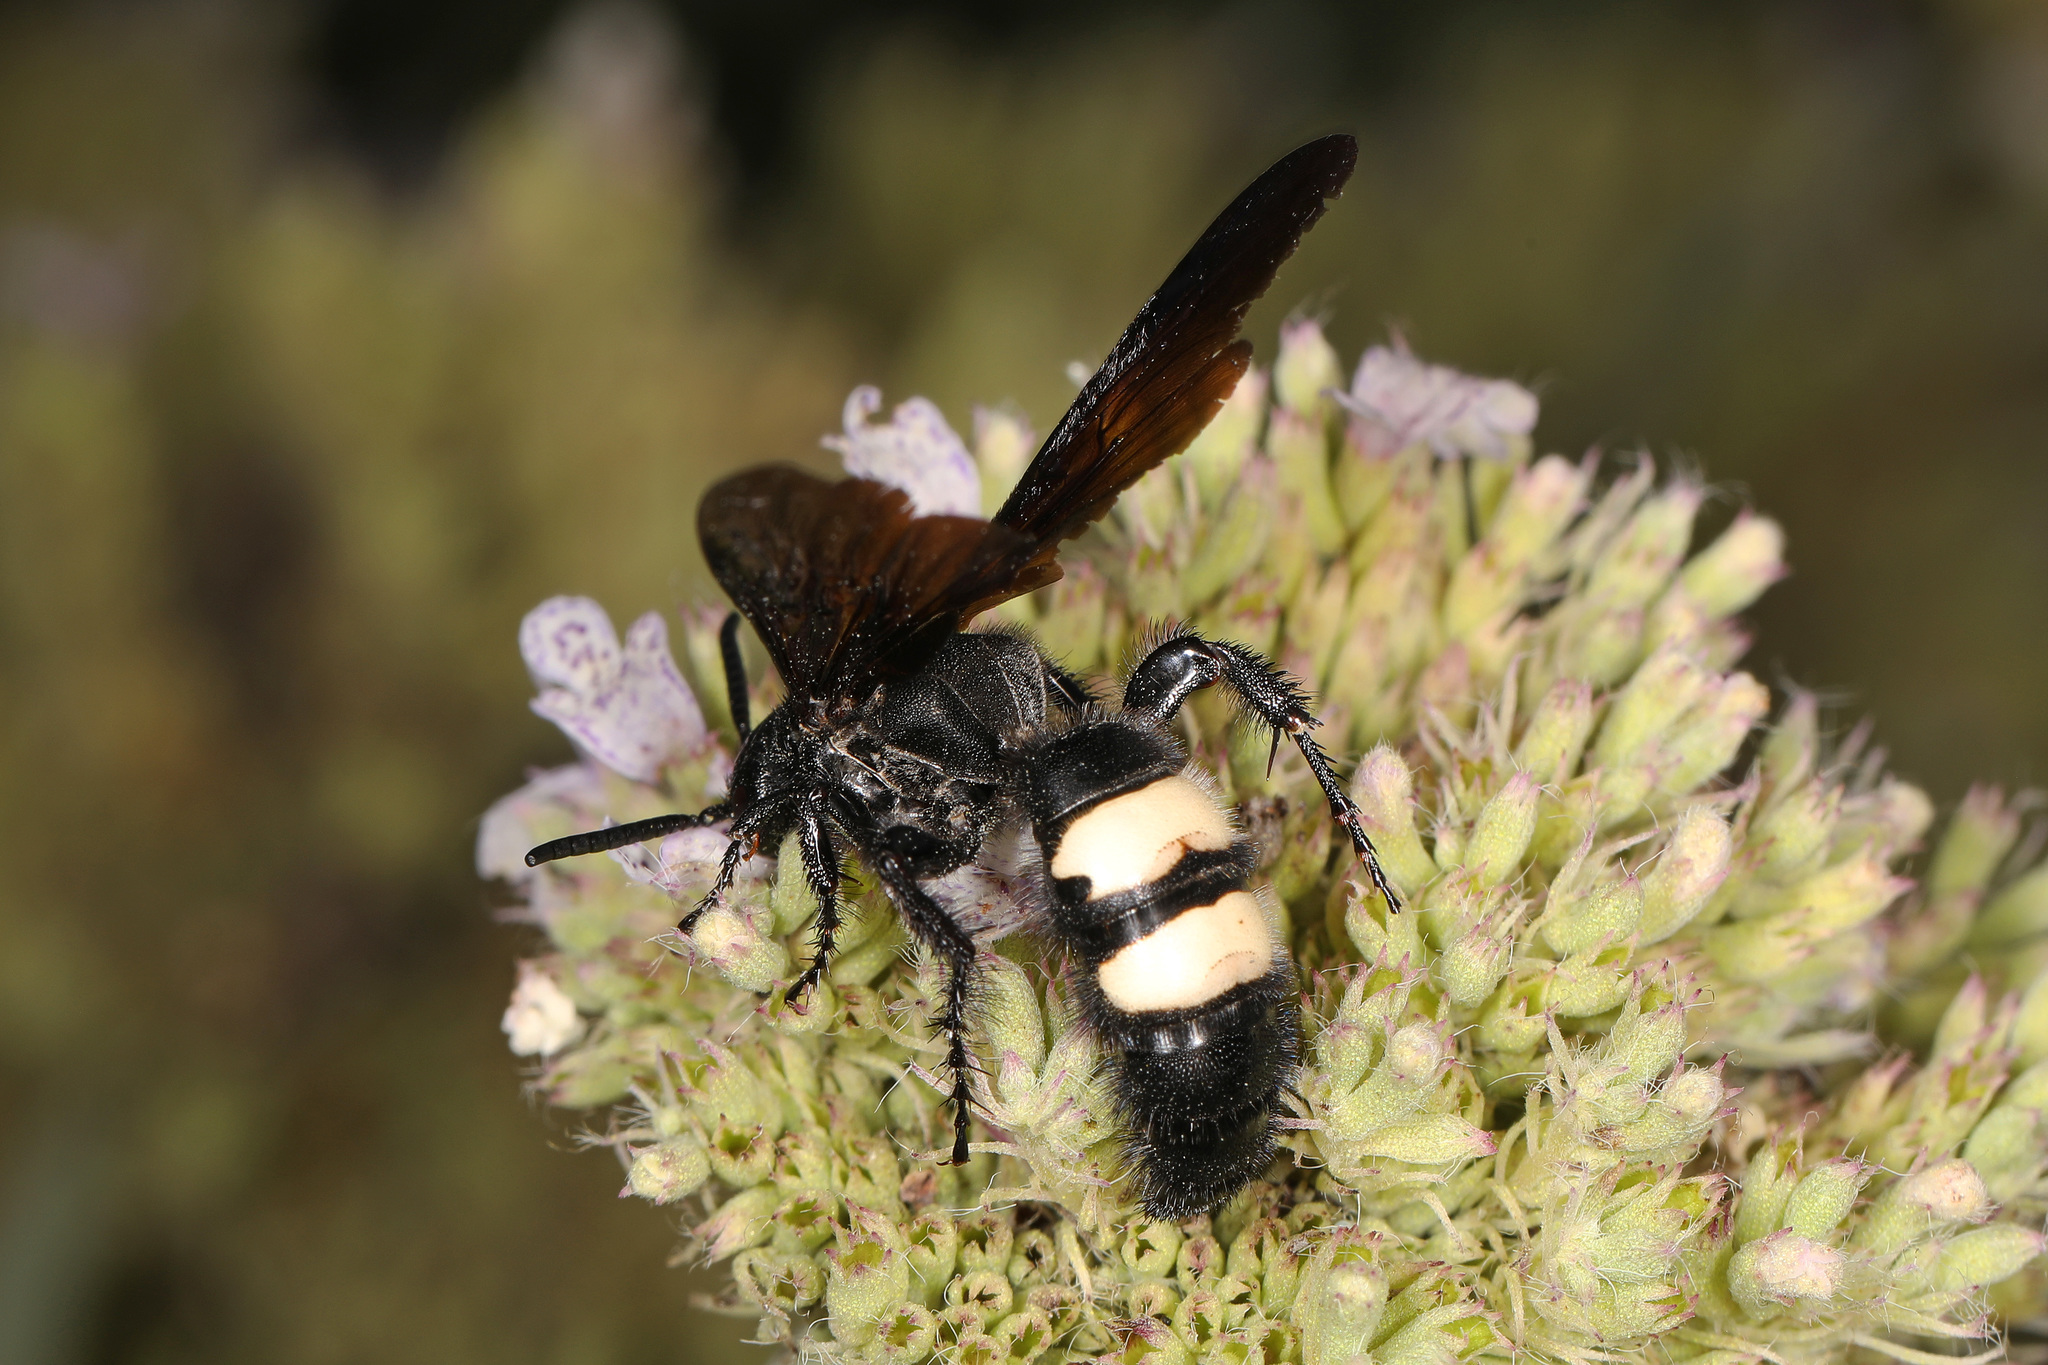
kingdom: Animalia
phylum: Arthropoda
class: Insecta
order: Hymenoptera
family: Scoliidae
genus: Scolia
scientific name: Scolia bicincta
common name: Double-banded scoliid wasp
